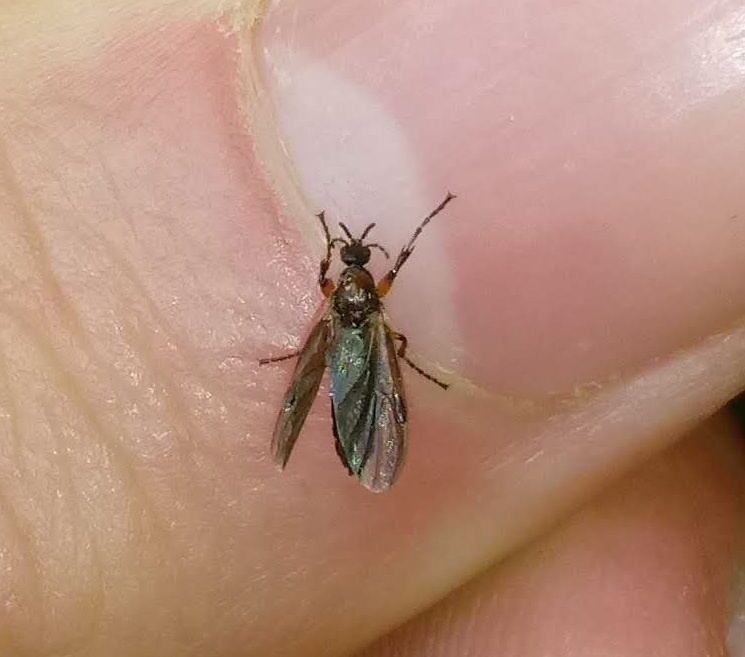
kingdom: Animalia
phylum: Arthropoda
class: Insecta
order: Diptera
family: Bibionidae
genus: Bibio
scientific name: Bibio articulatus
